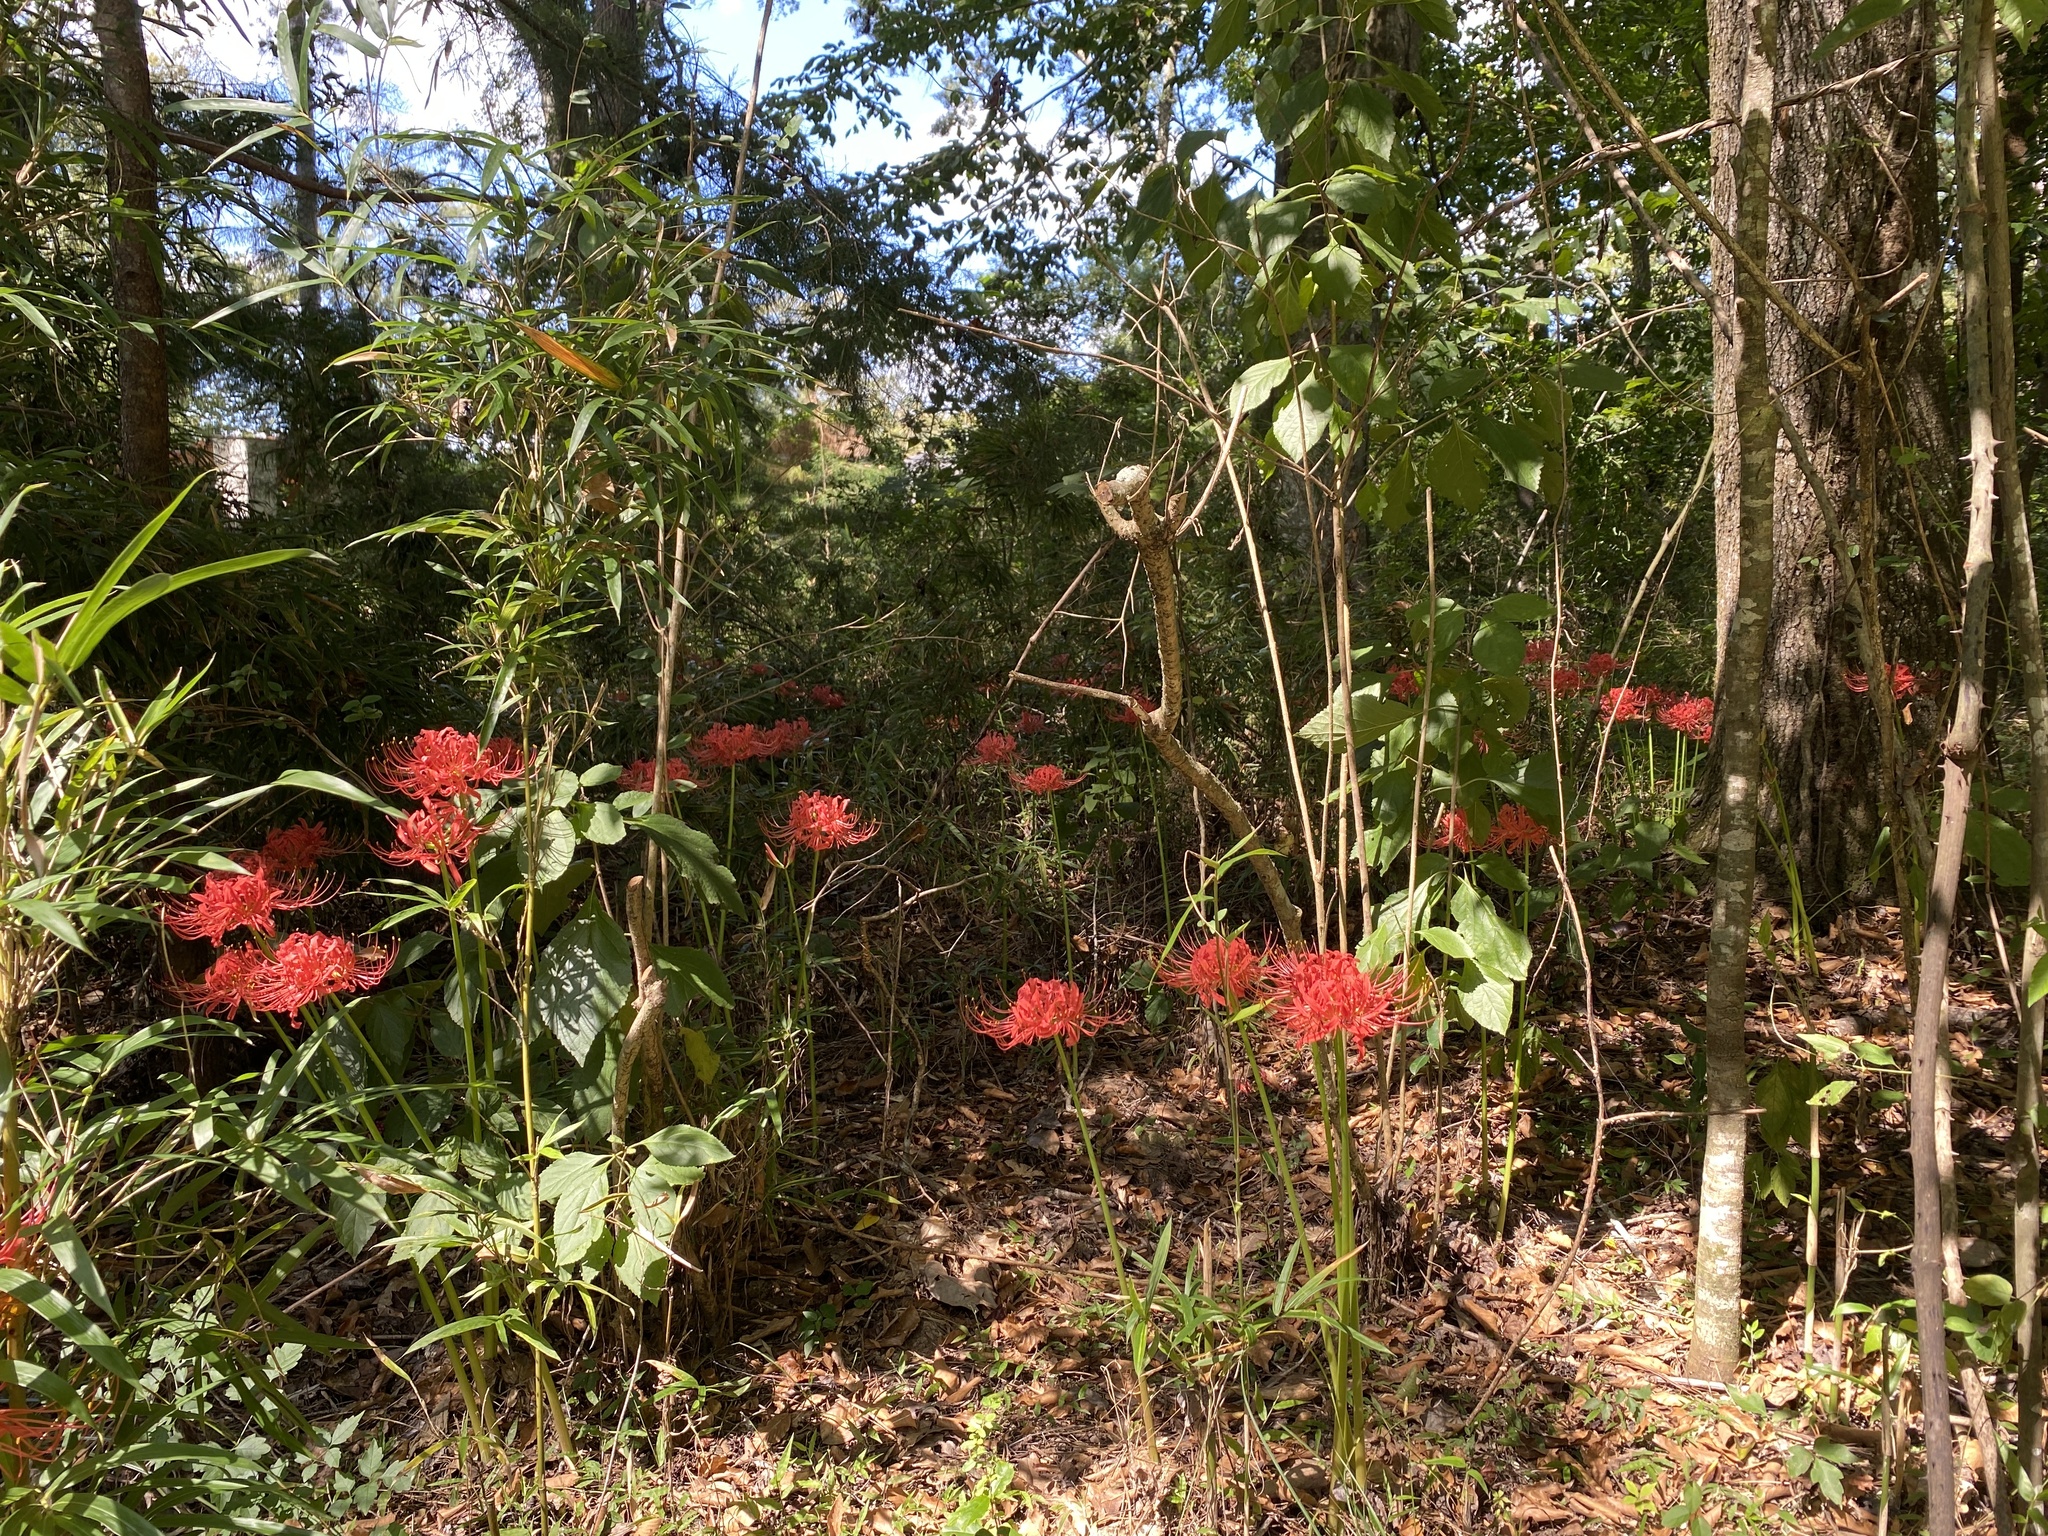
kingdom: Plantae
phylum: Tracheophyta
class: Liliopsida
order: Asparagales
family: Amaryllidaceae
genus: Lycoris
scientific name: Lycoris radiata
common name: Red spider lily
